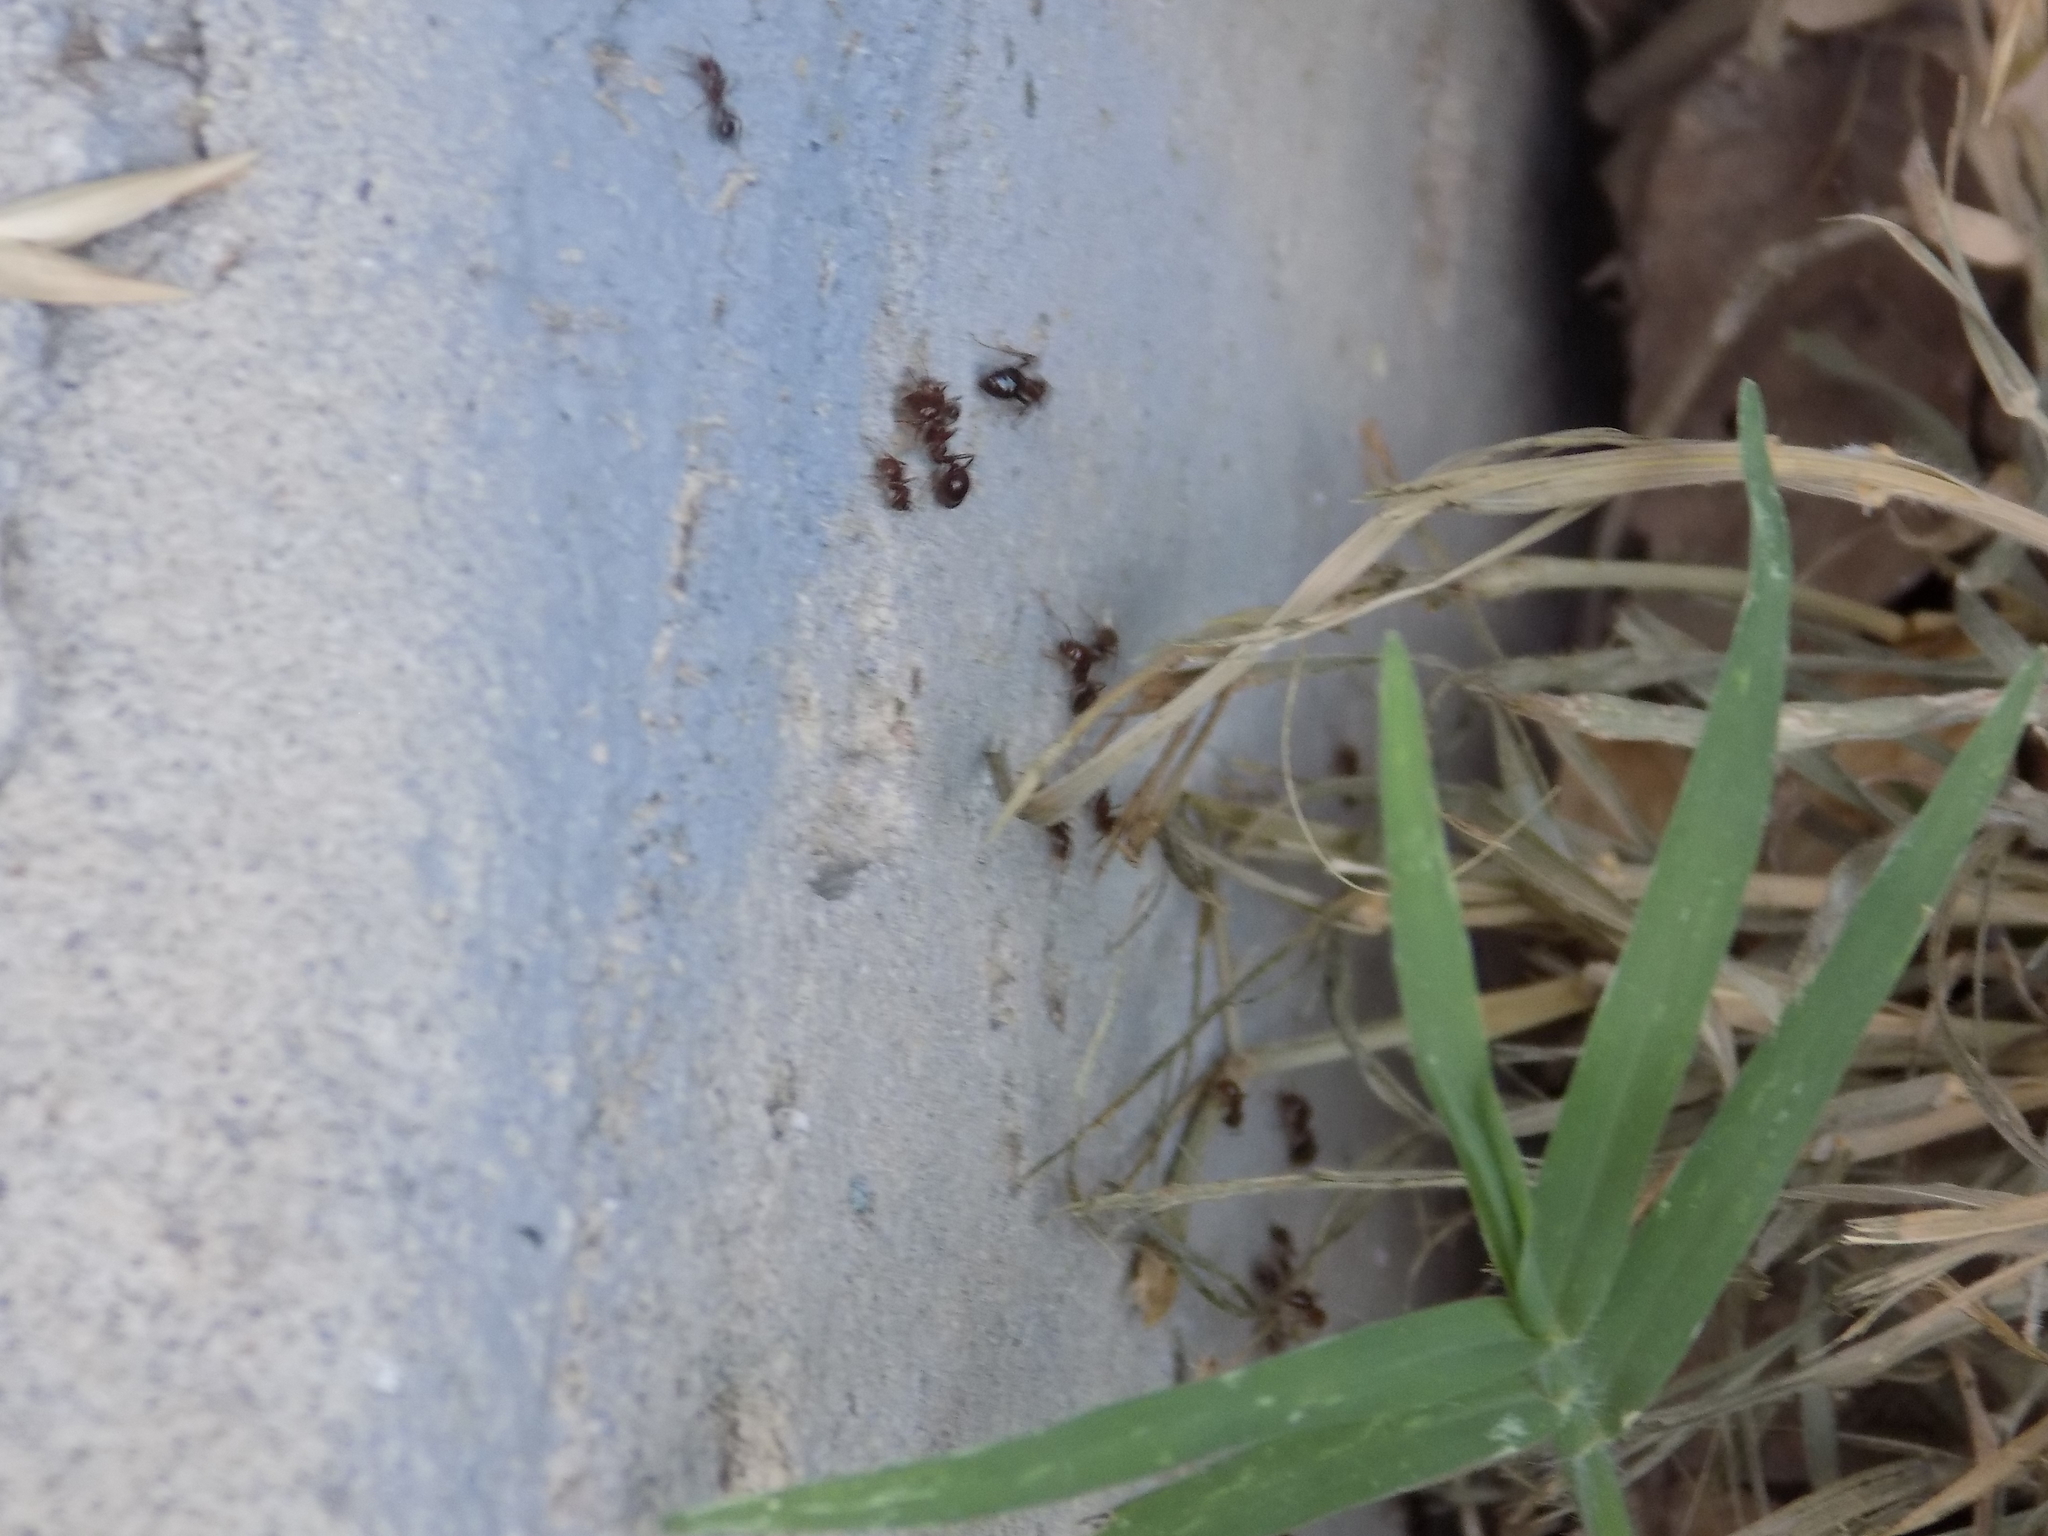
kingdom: Animalia
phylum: Arthropoda
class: Insecta
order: Hymenoptera
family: Formicidae
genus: Solenopsis
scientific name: Solenopsis invicta
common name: Red imported fire ant
